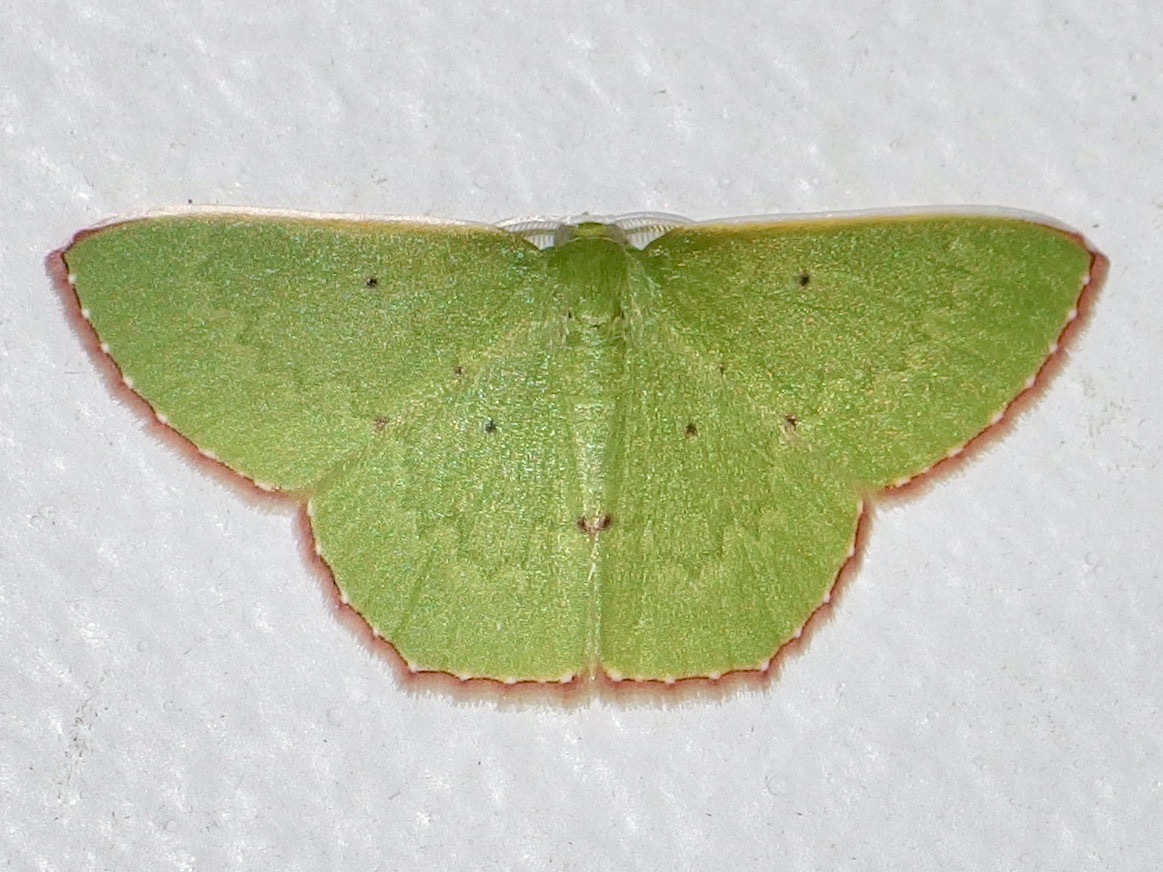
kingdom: Animalia
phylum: Arthropoda
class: Insecta
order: Lepidoptera
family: Geometridae
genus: Oenospila
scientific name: Oenospila flavifusata
